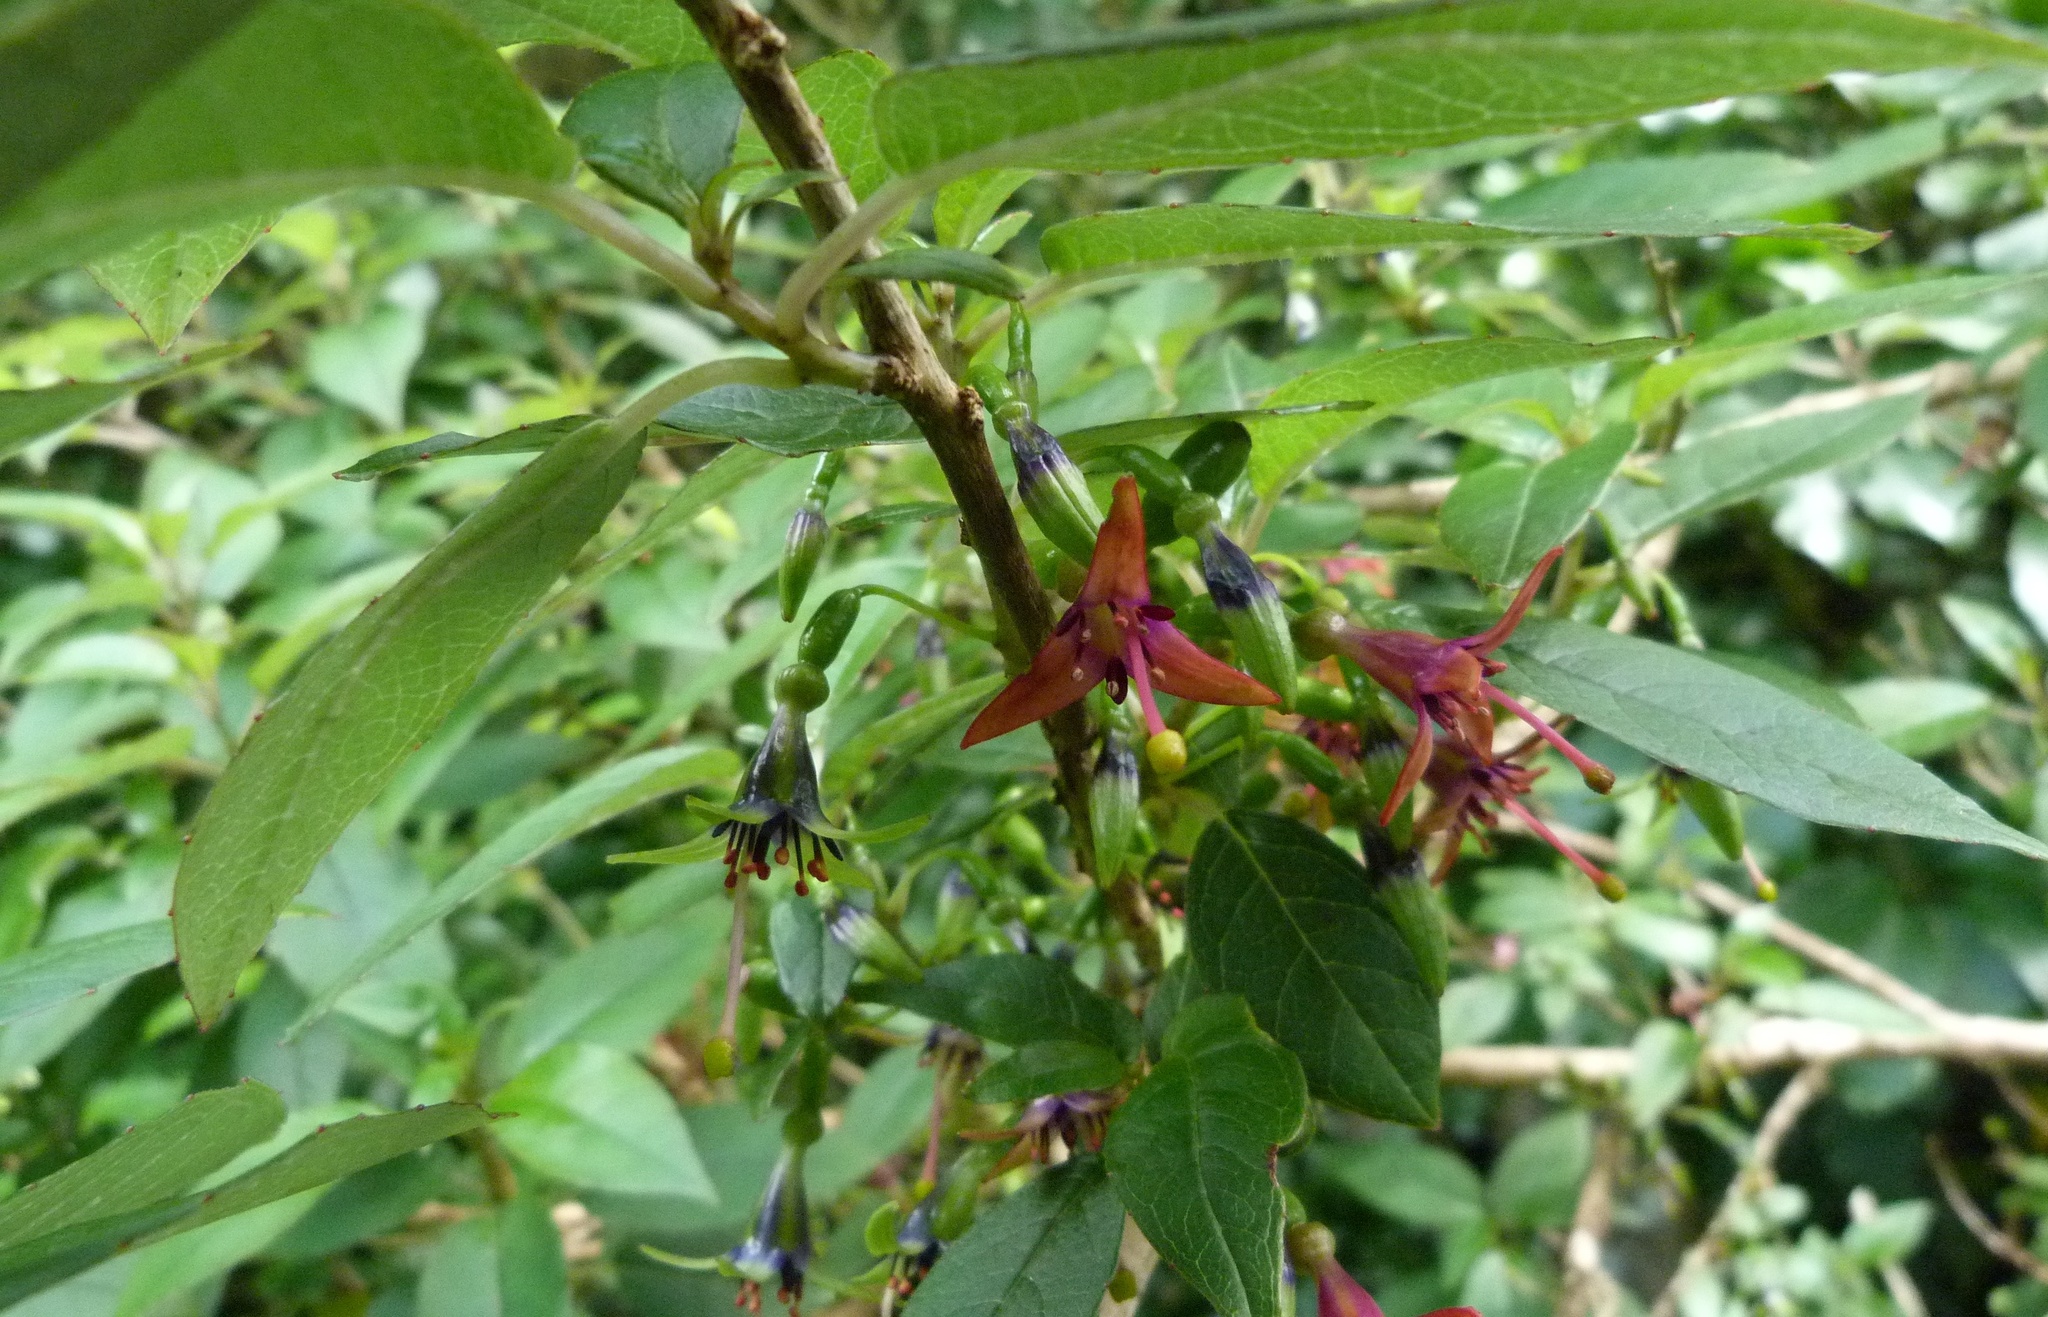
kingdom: Plantae
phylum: Tracheophyta
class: Magnoliopsida
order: Myrtales
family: Onagraceae
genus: Fuchsia
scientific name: Fuchsia colensoi
